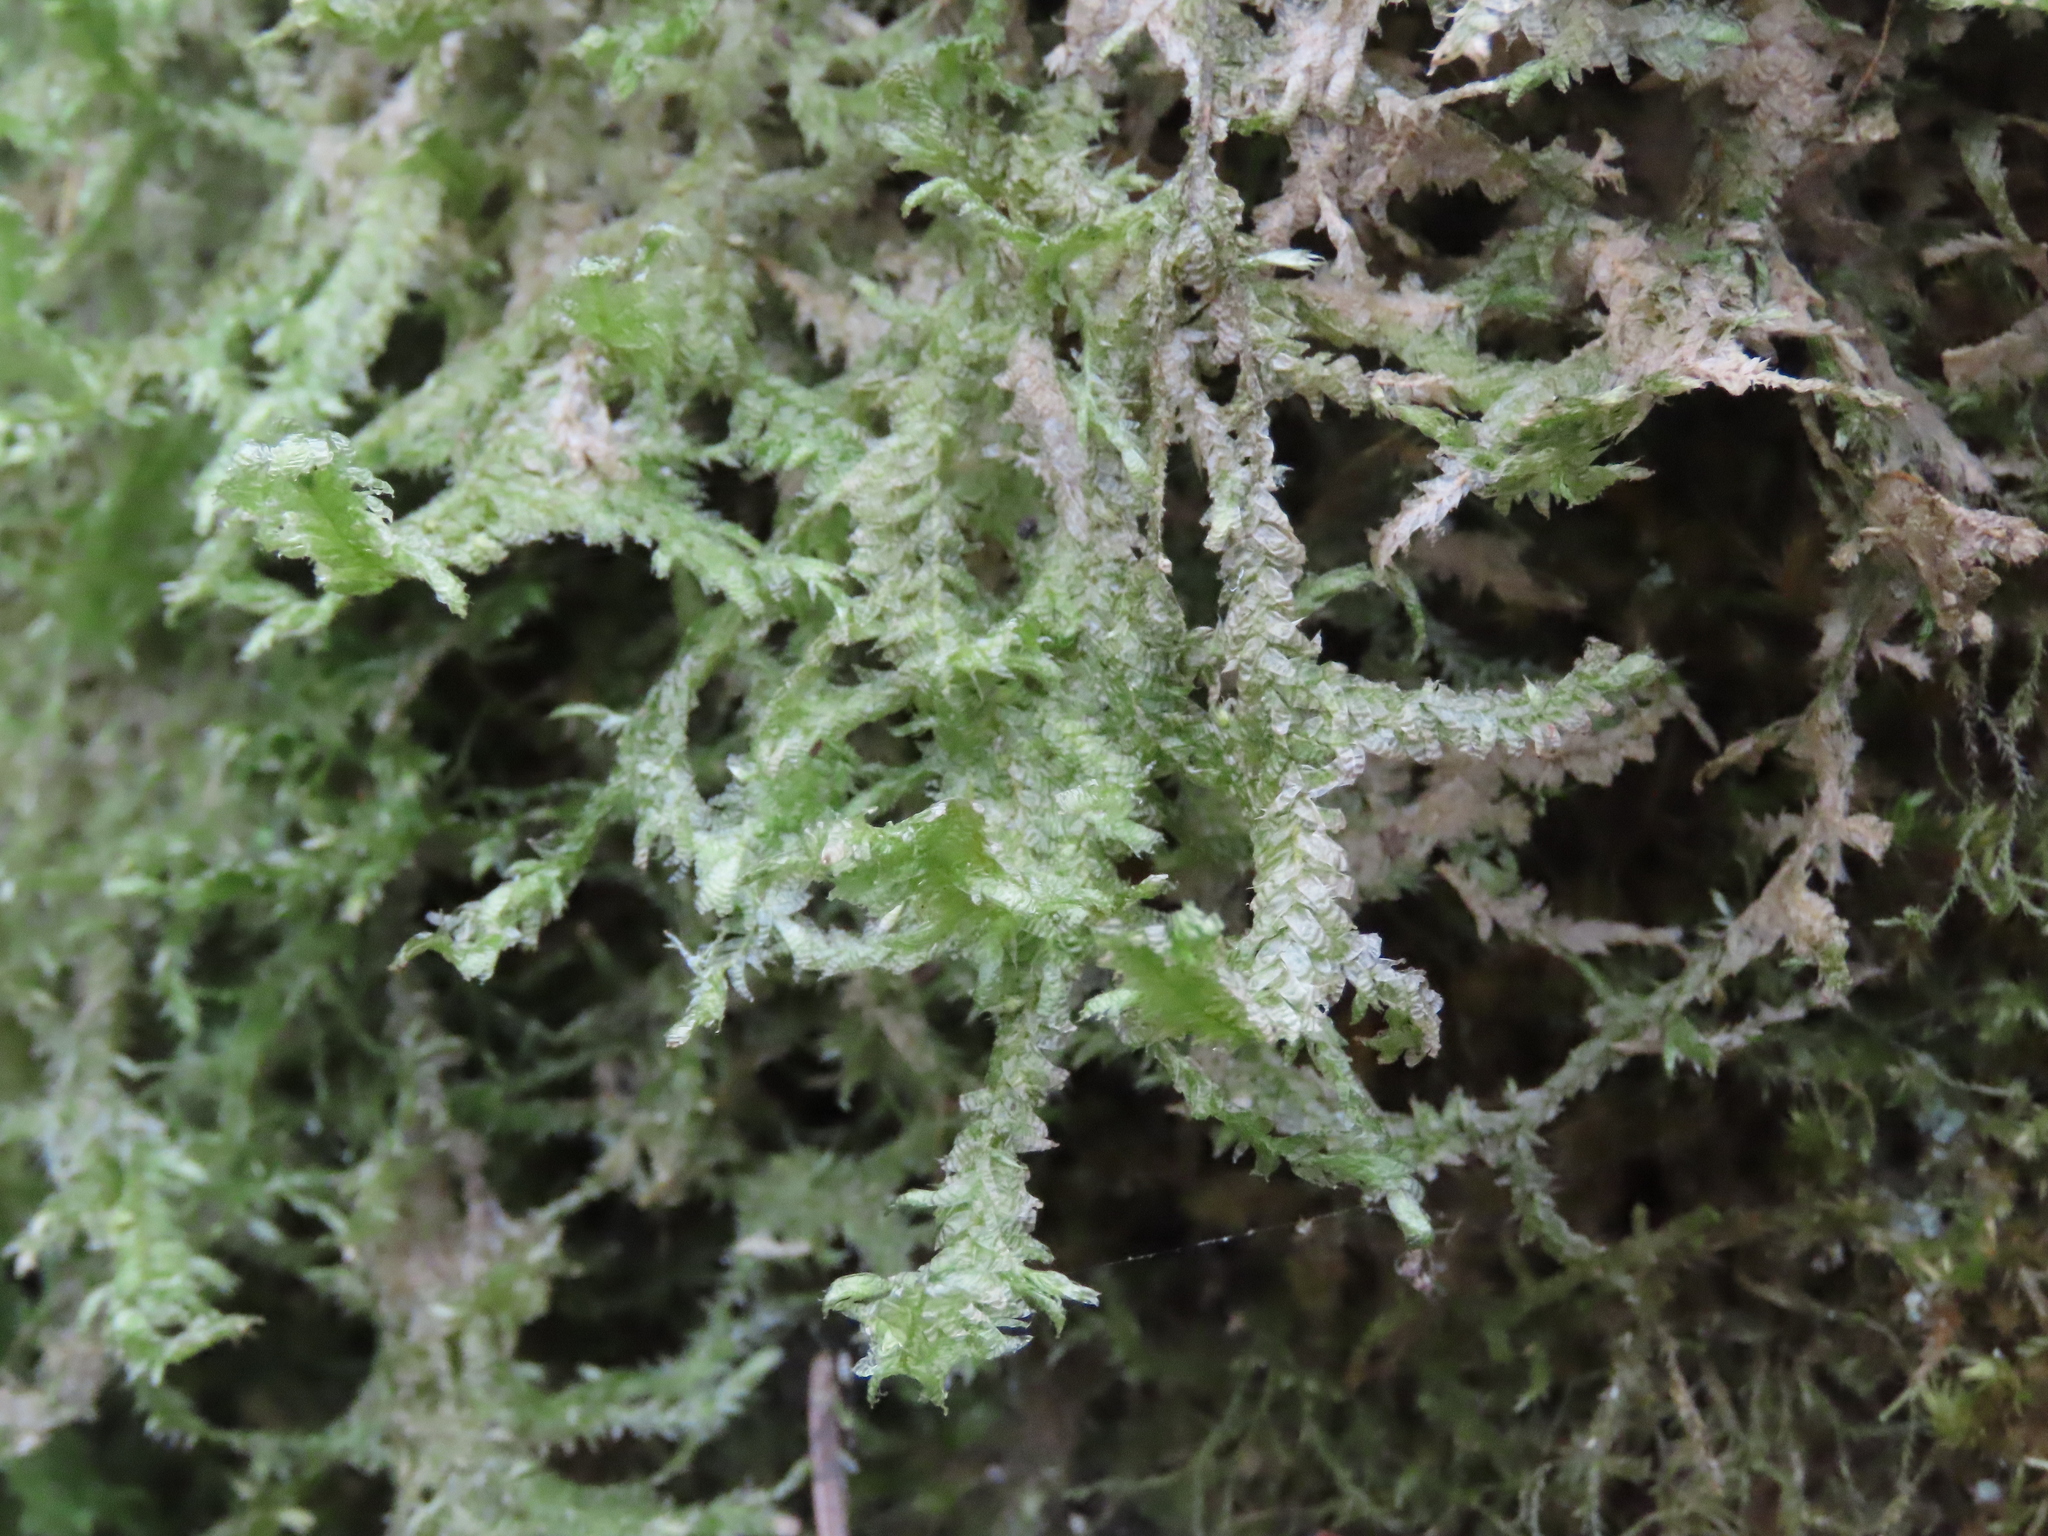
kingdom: Plantae
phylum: Bryophyta
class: Bryopsida
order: Hypnales
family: Neckeraceae
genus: Neckera
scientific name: Neckera douglasii
